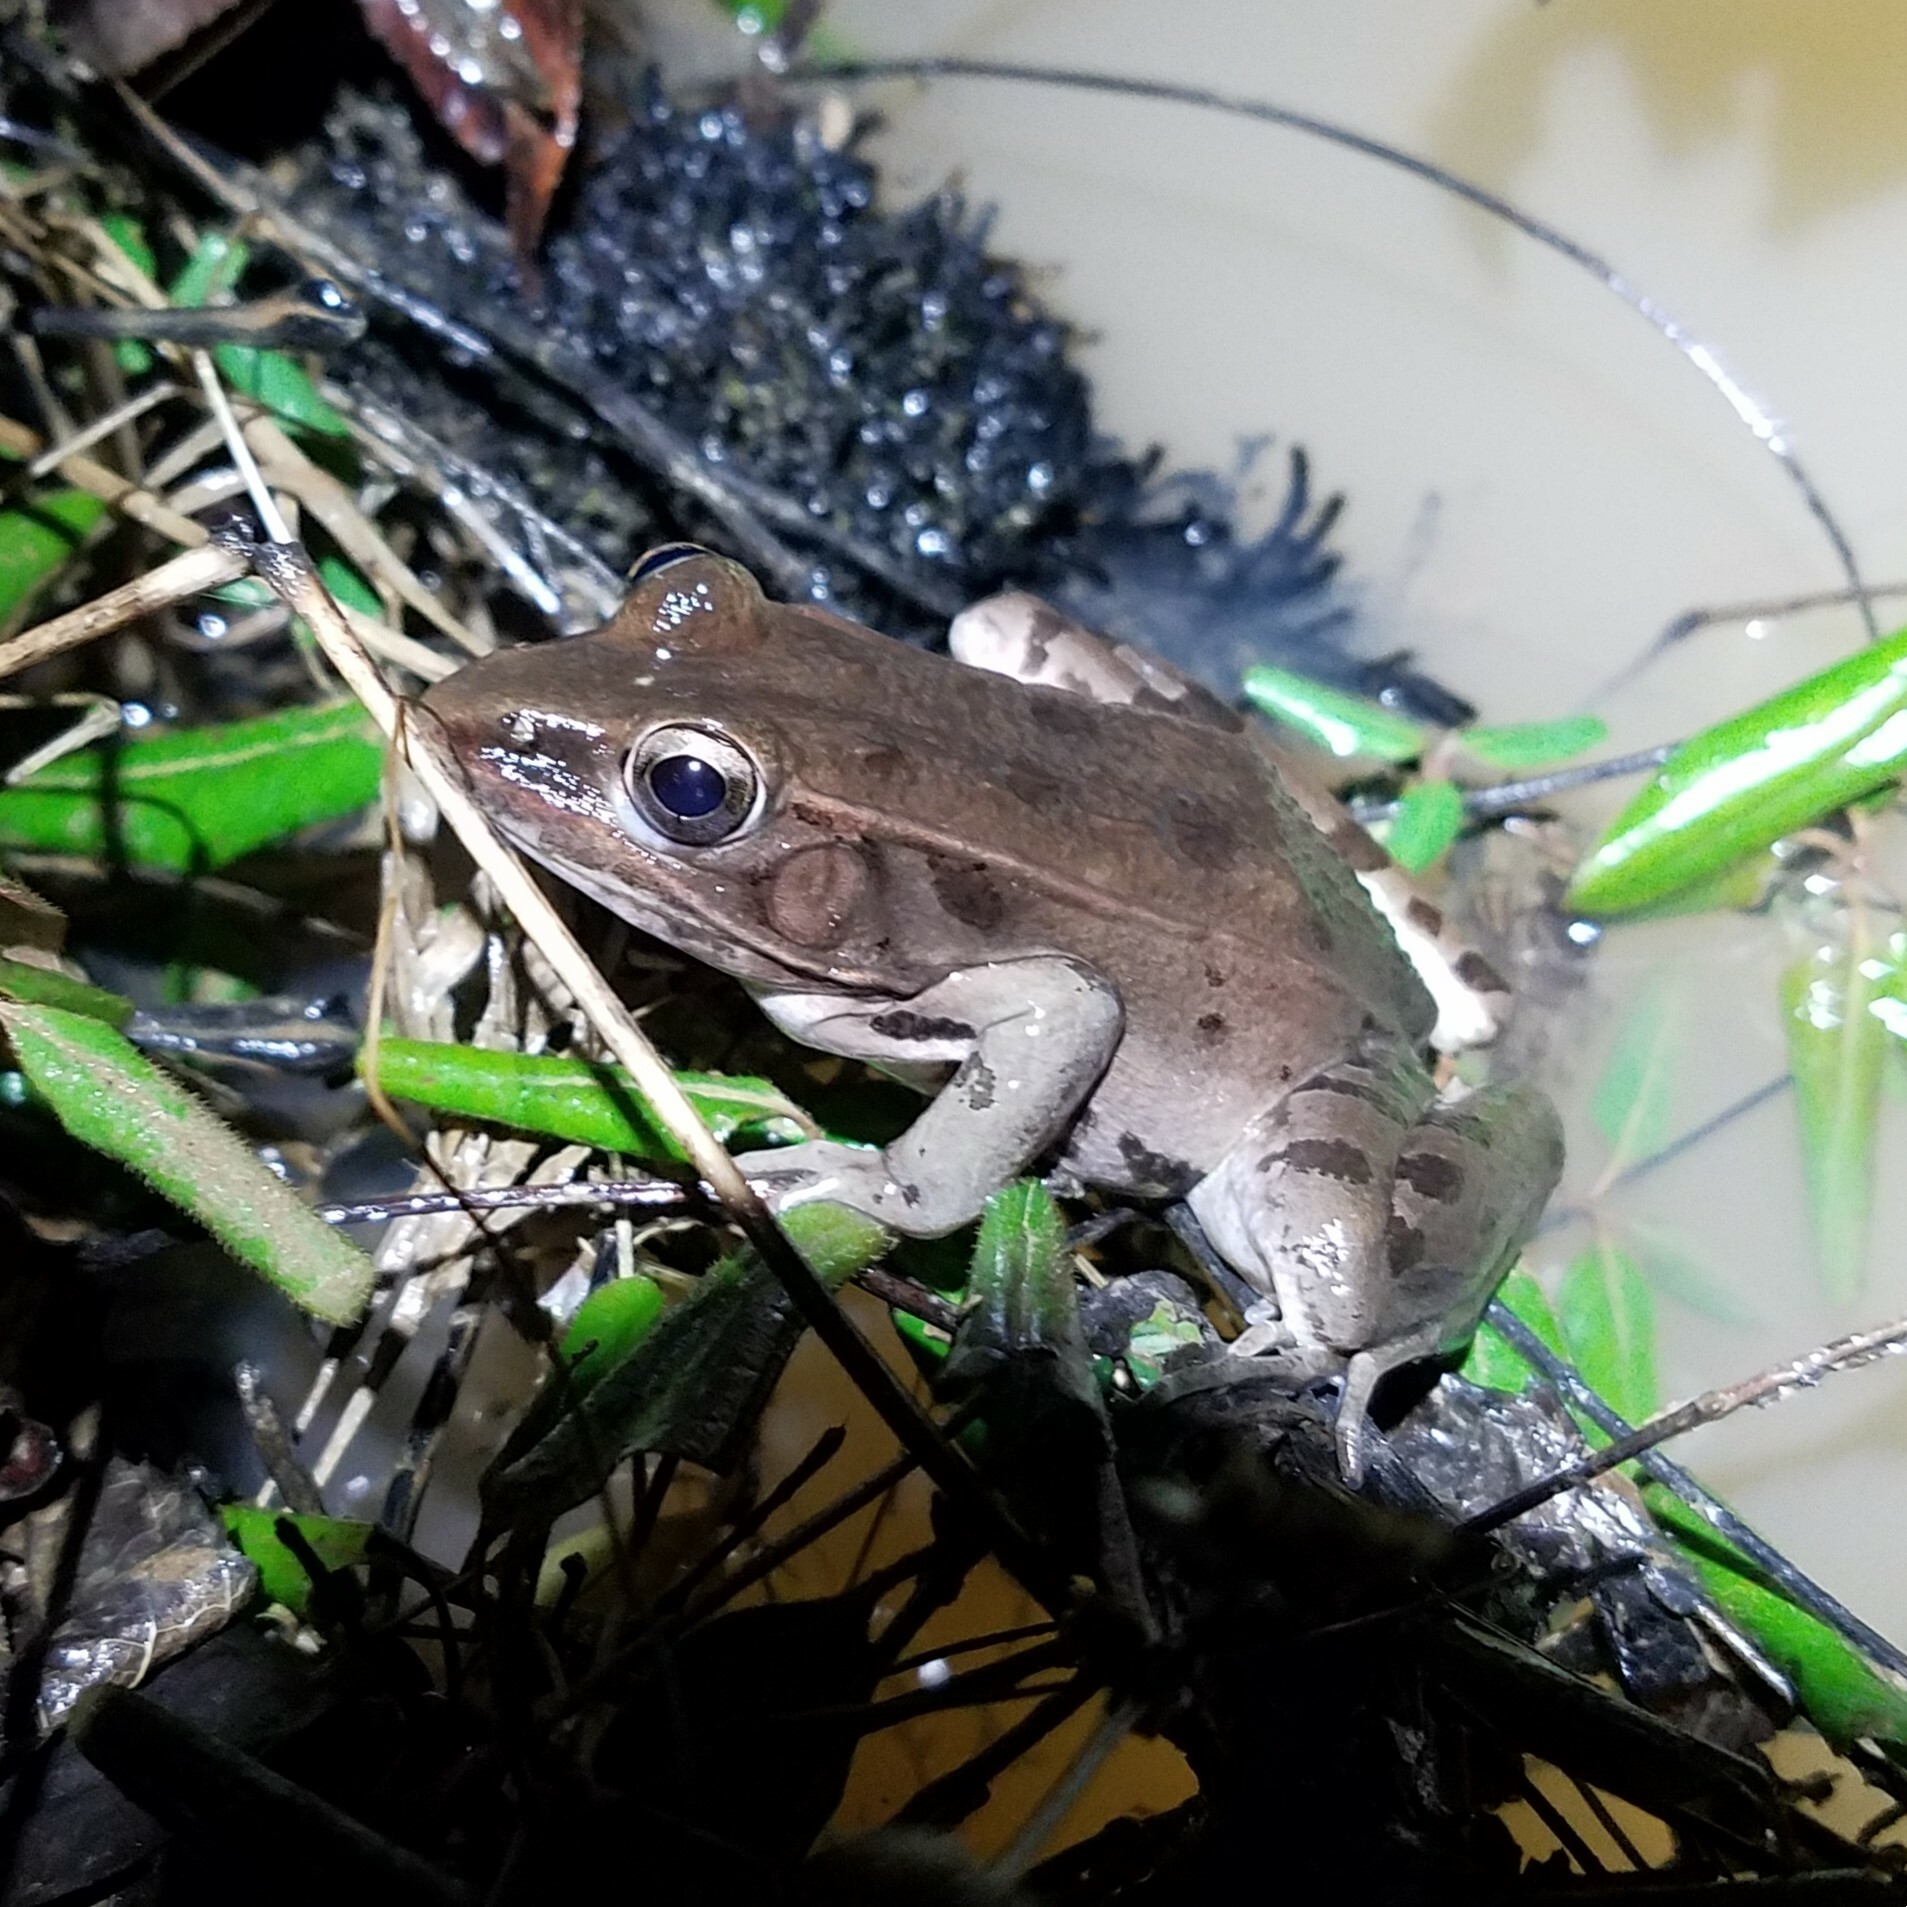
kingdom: Animalia
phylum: Chordata
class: Amphibia
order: Anura
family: Ranidae
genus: Lithobates
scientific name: Lithobates sphenocephalus
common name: Southern leopard frog
